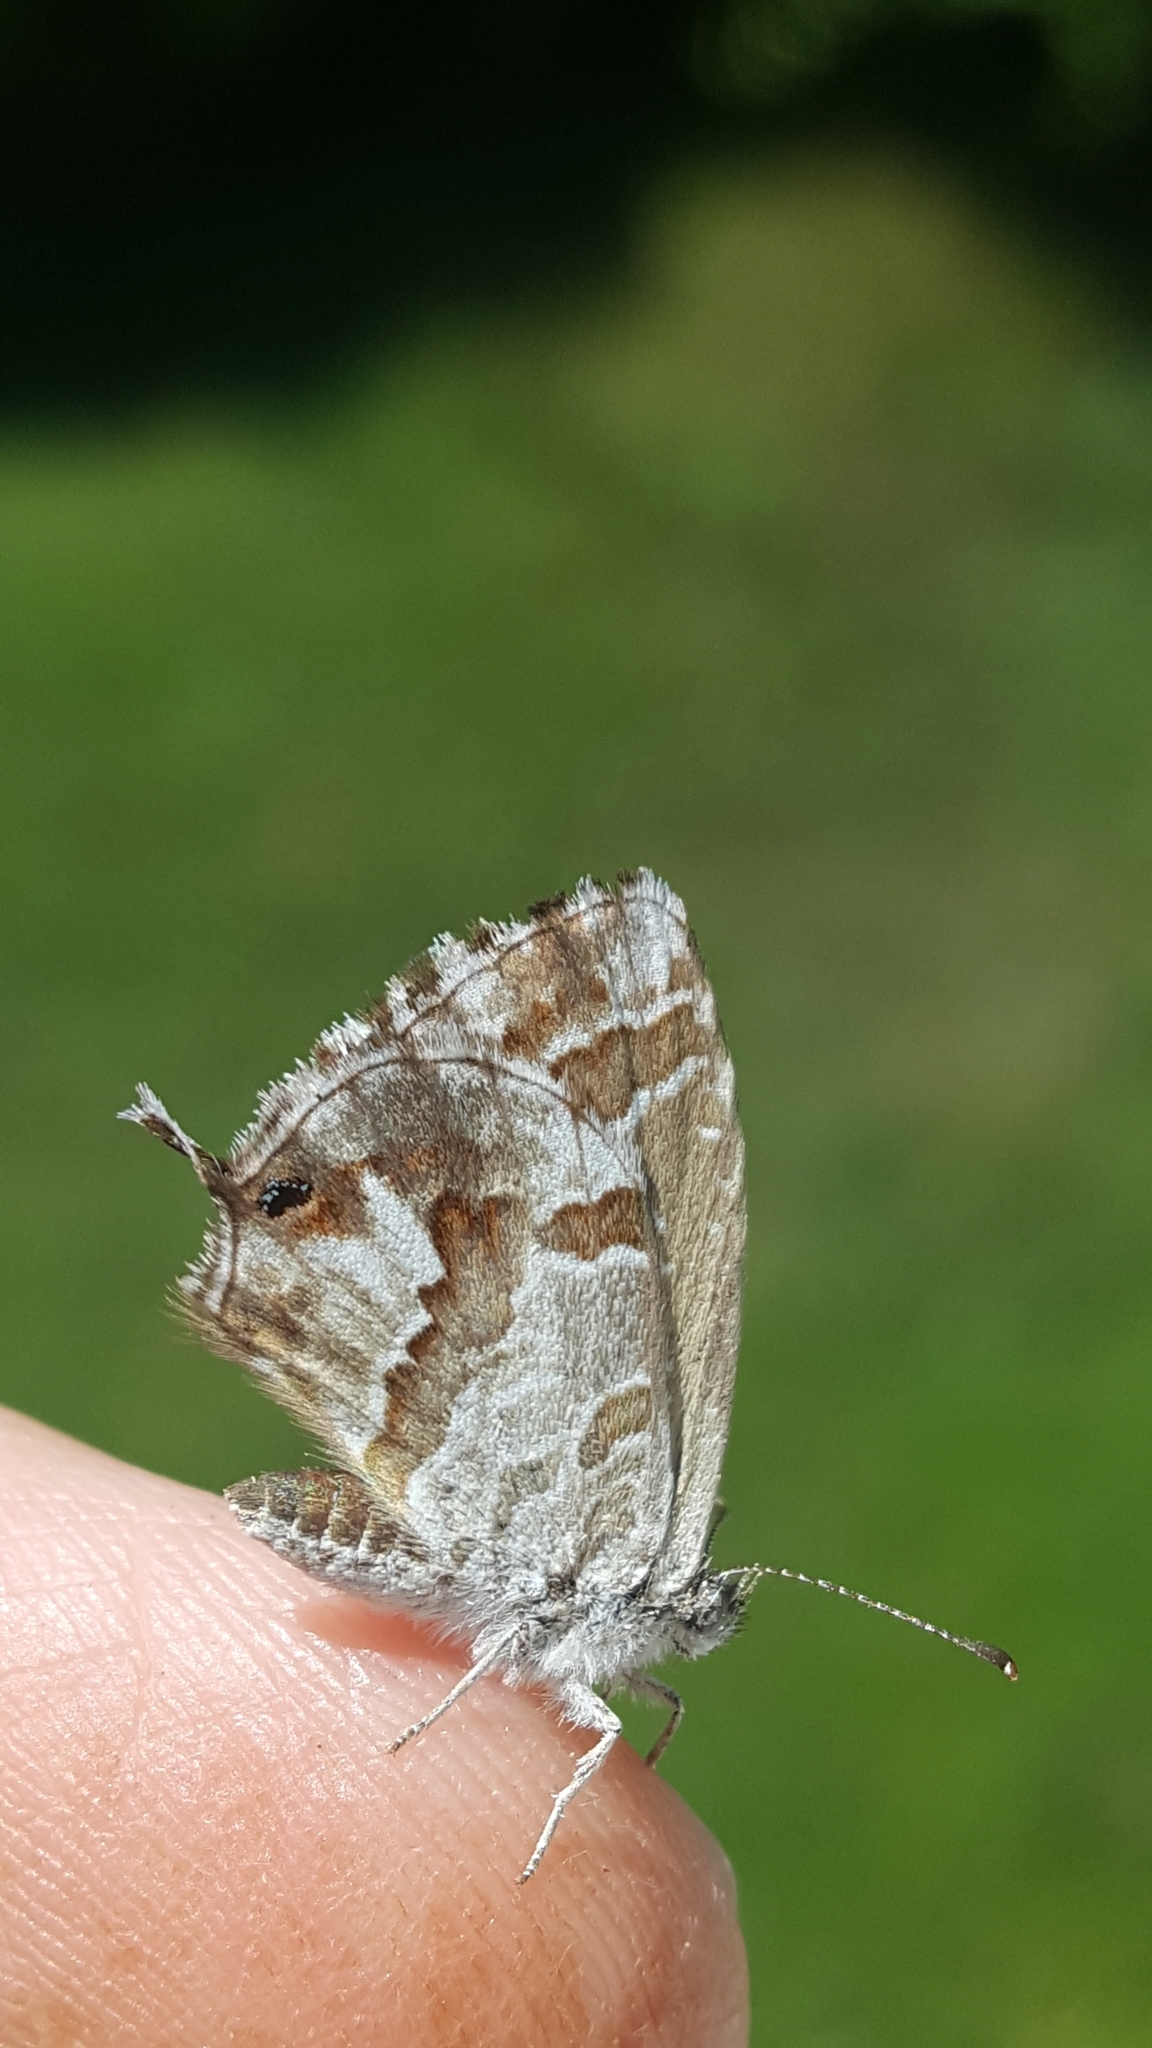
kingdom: Animalia
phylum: Arthropoda
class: Insecta
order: Lepidoptera
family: Lycaenidae
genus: Cacyreus
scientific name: Cacyreus marshalli
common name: Geranium bronze
